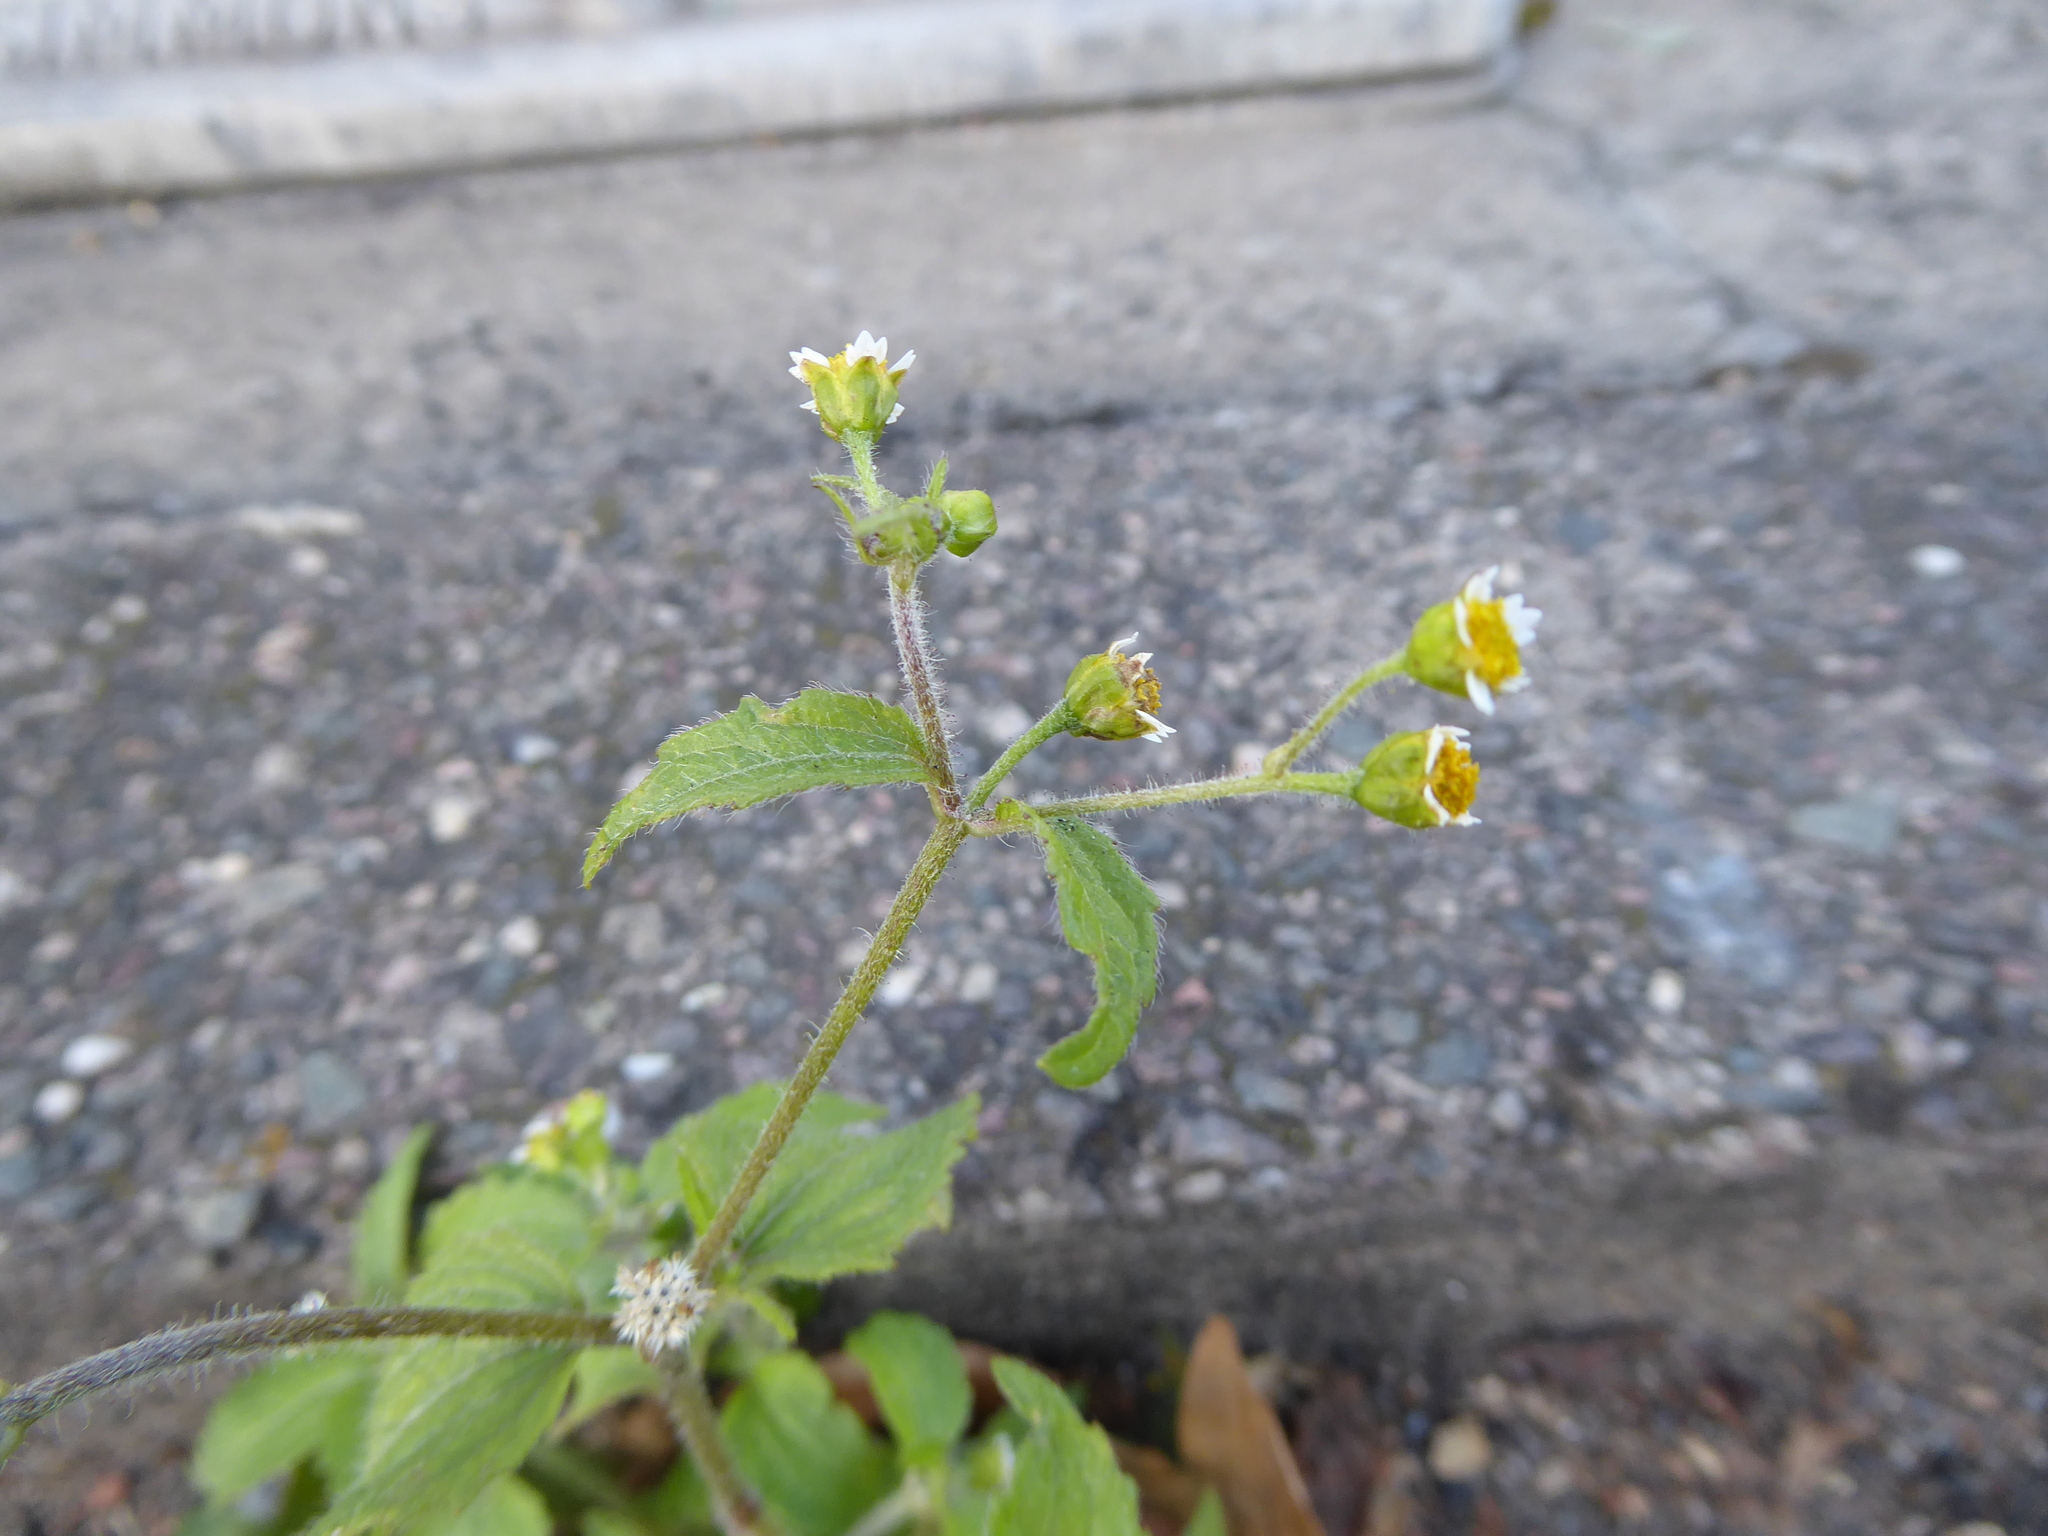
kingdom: Plantae
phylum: Tracheophyta
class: Magnoliopsida
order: Asterales
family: Asteraceae
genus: Galinsoga
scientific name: Galinsoga quadriradiata
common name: Shaggy soldier
